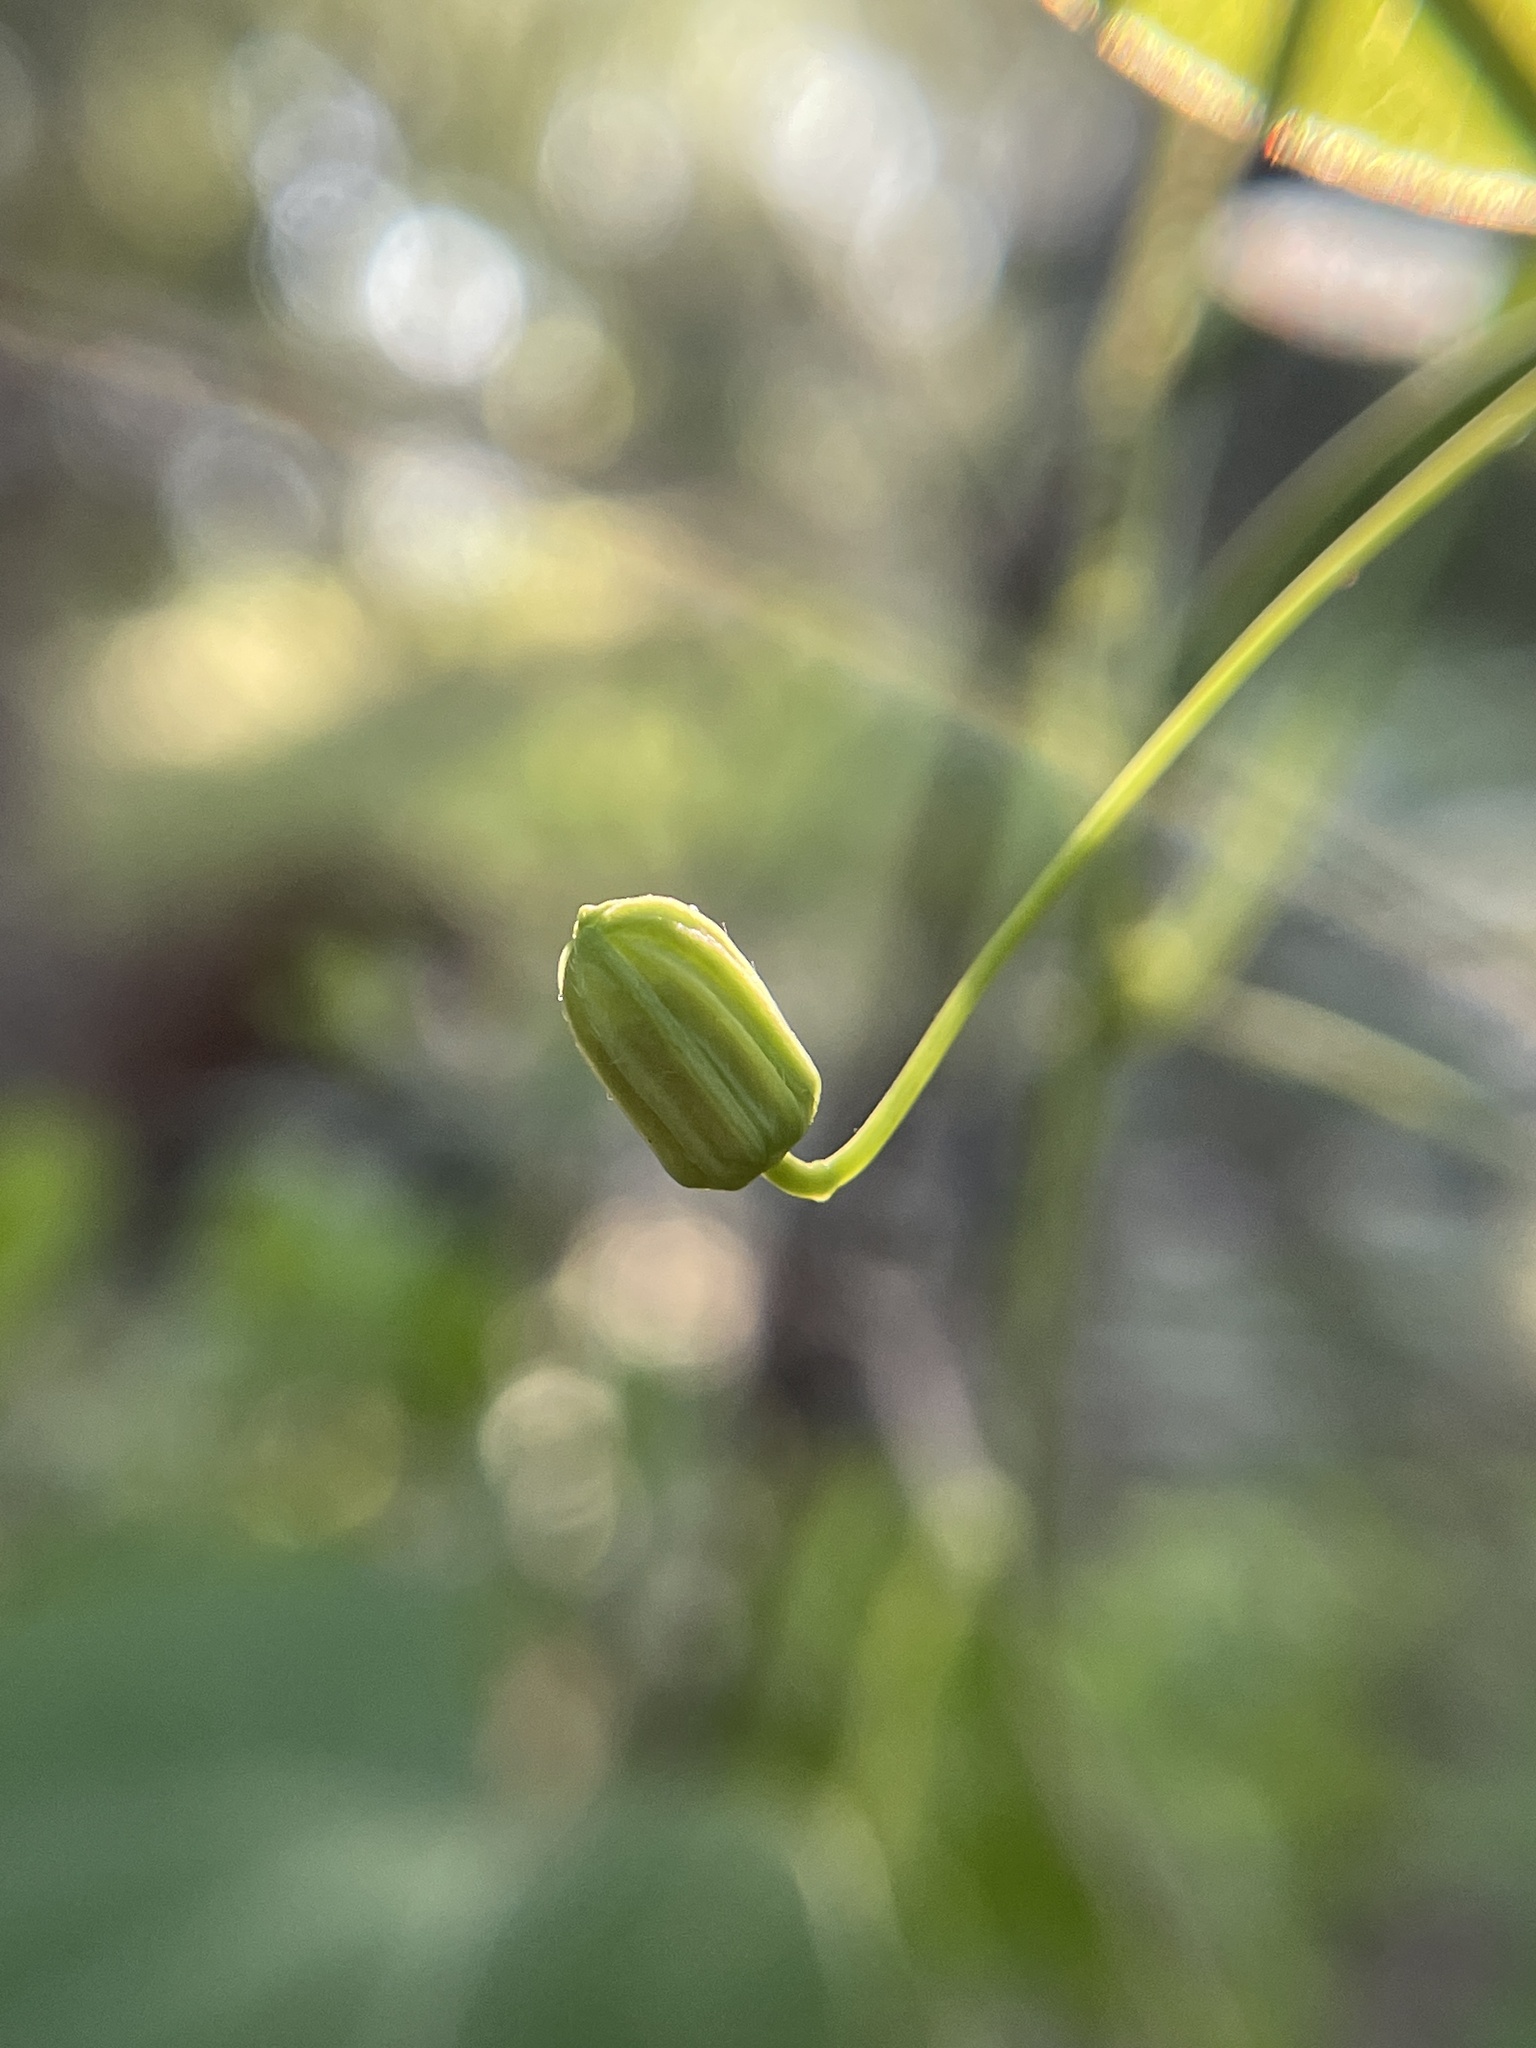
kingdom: Plantae
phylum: Tracheophyta
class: Magnoliopsida
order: Malpighiales
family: Passifloraceae
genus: Passiflora
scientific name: Passiflora lutea
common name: Yellow passionflower
